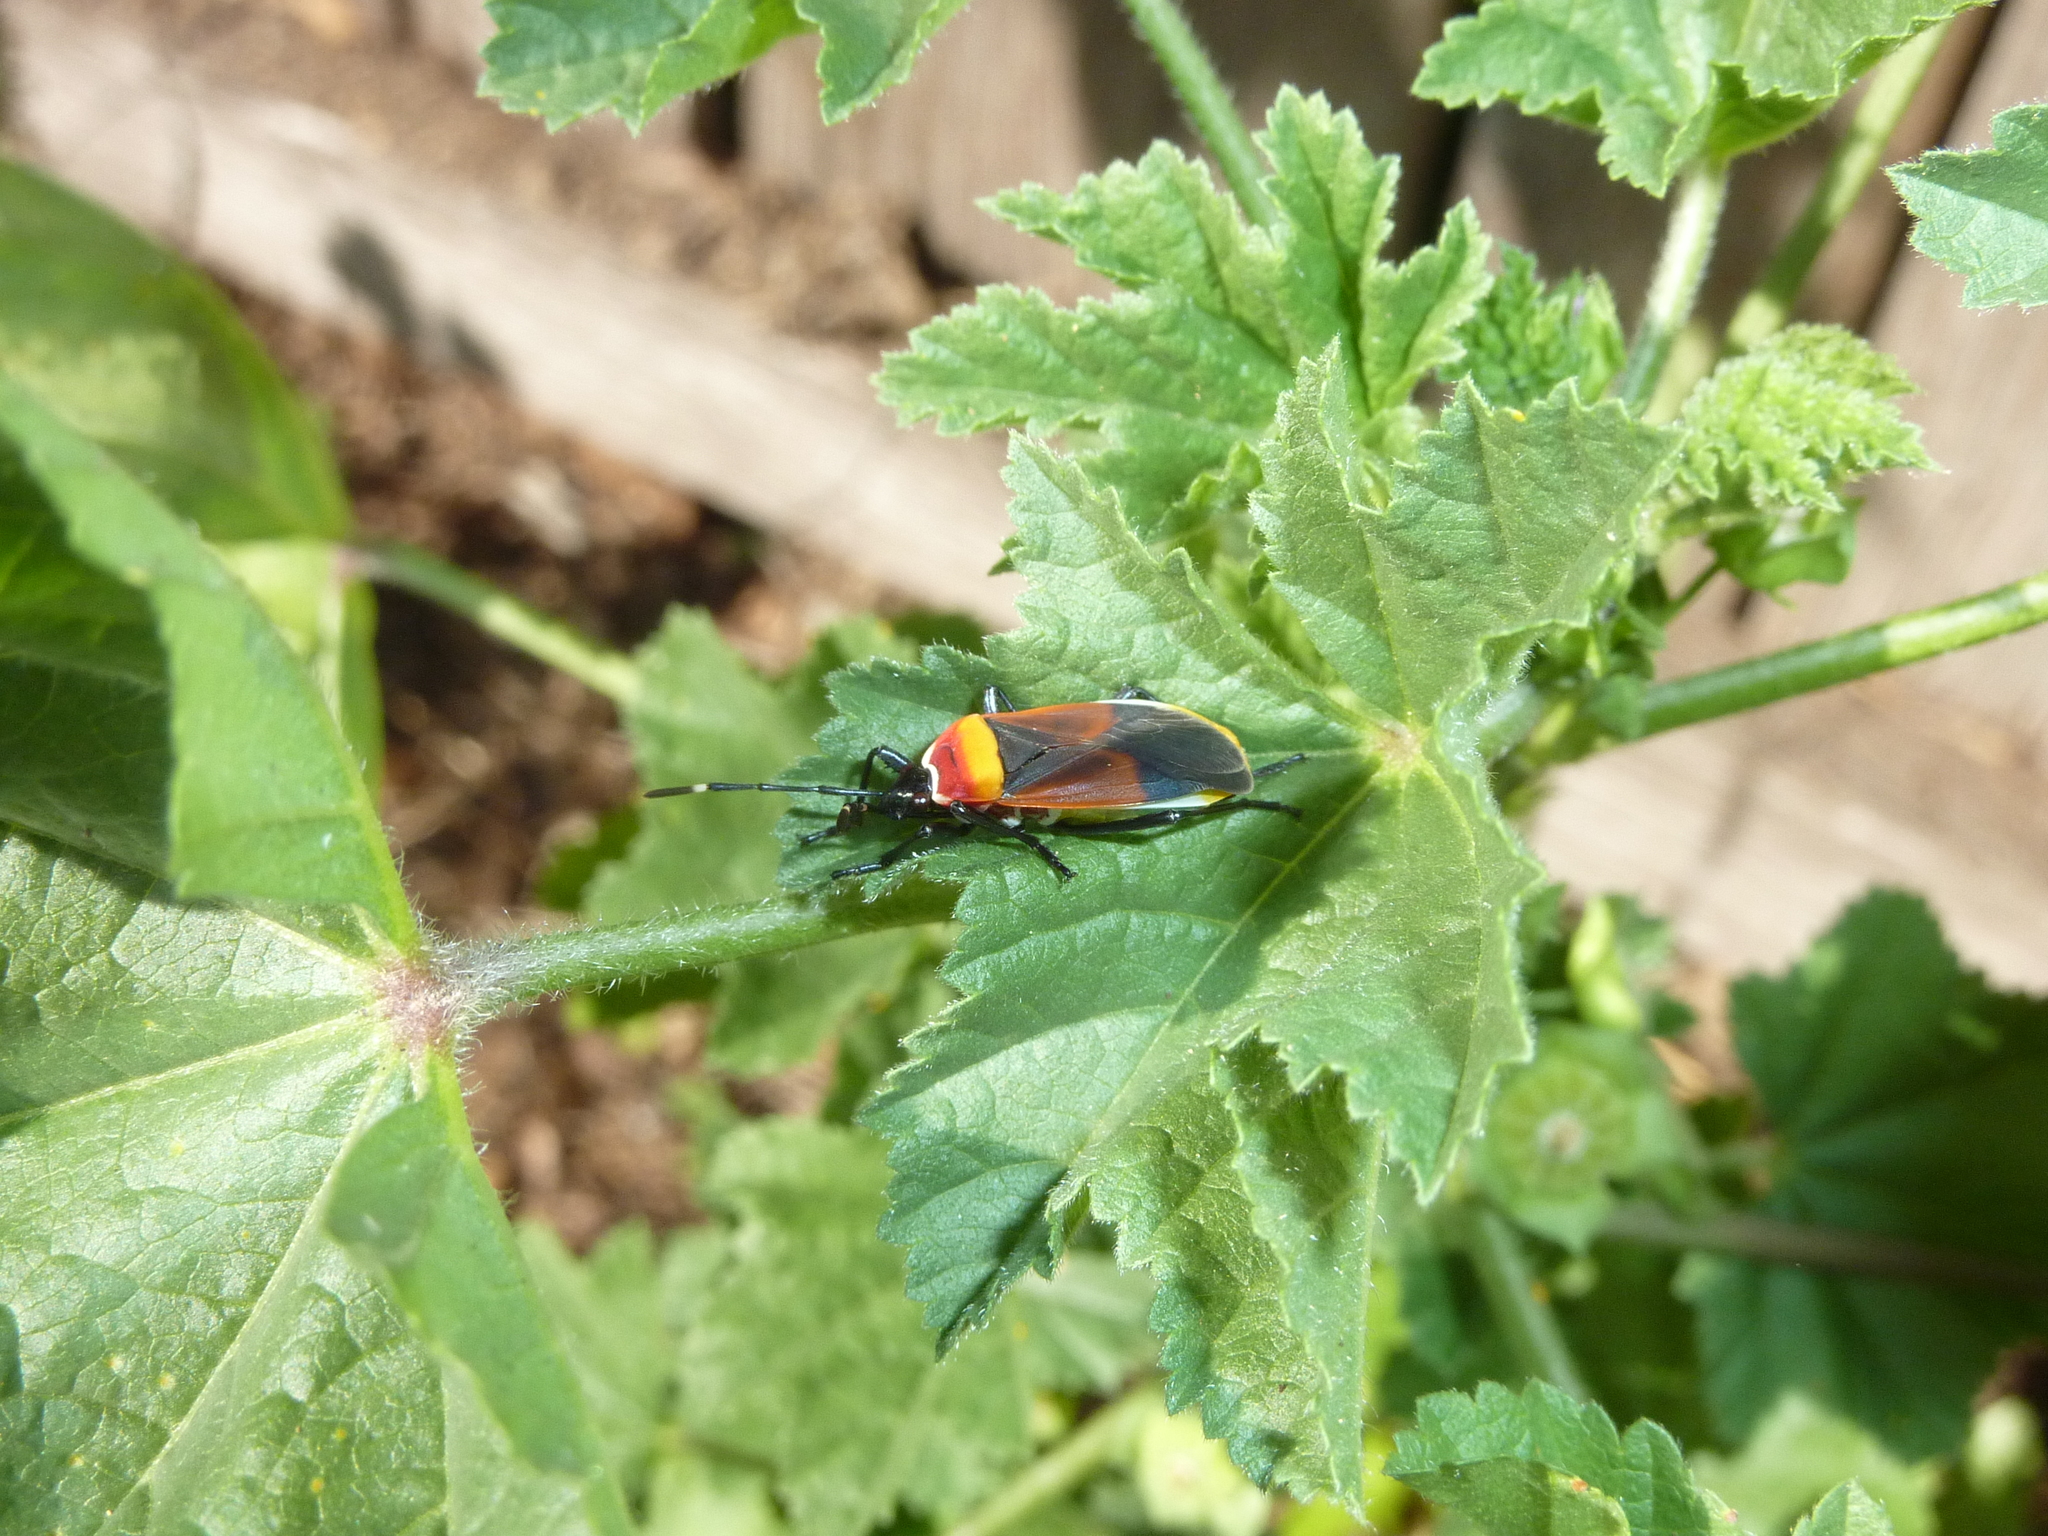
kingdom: Animalia
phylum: Arthropoda
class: Insecta
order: Hemiptera
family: Pyrrhocoridae
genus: Dindymus
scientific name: Dindymus
